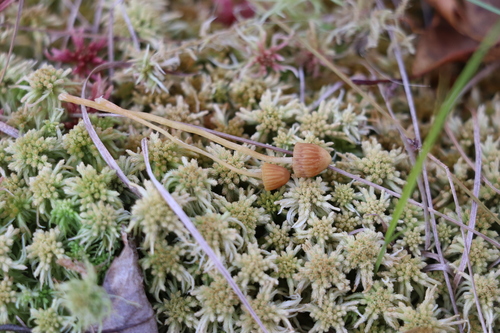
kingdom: Fungi
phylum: Basidiomycota
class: Agaricomycetes
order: Agaricales
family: Hymenogastraceae
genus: Galerina
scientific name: Galerina
